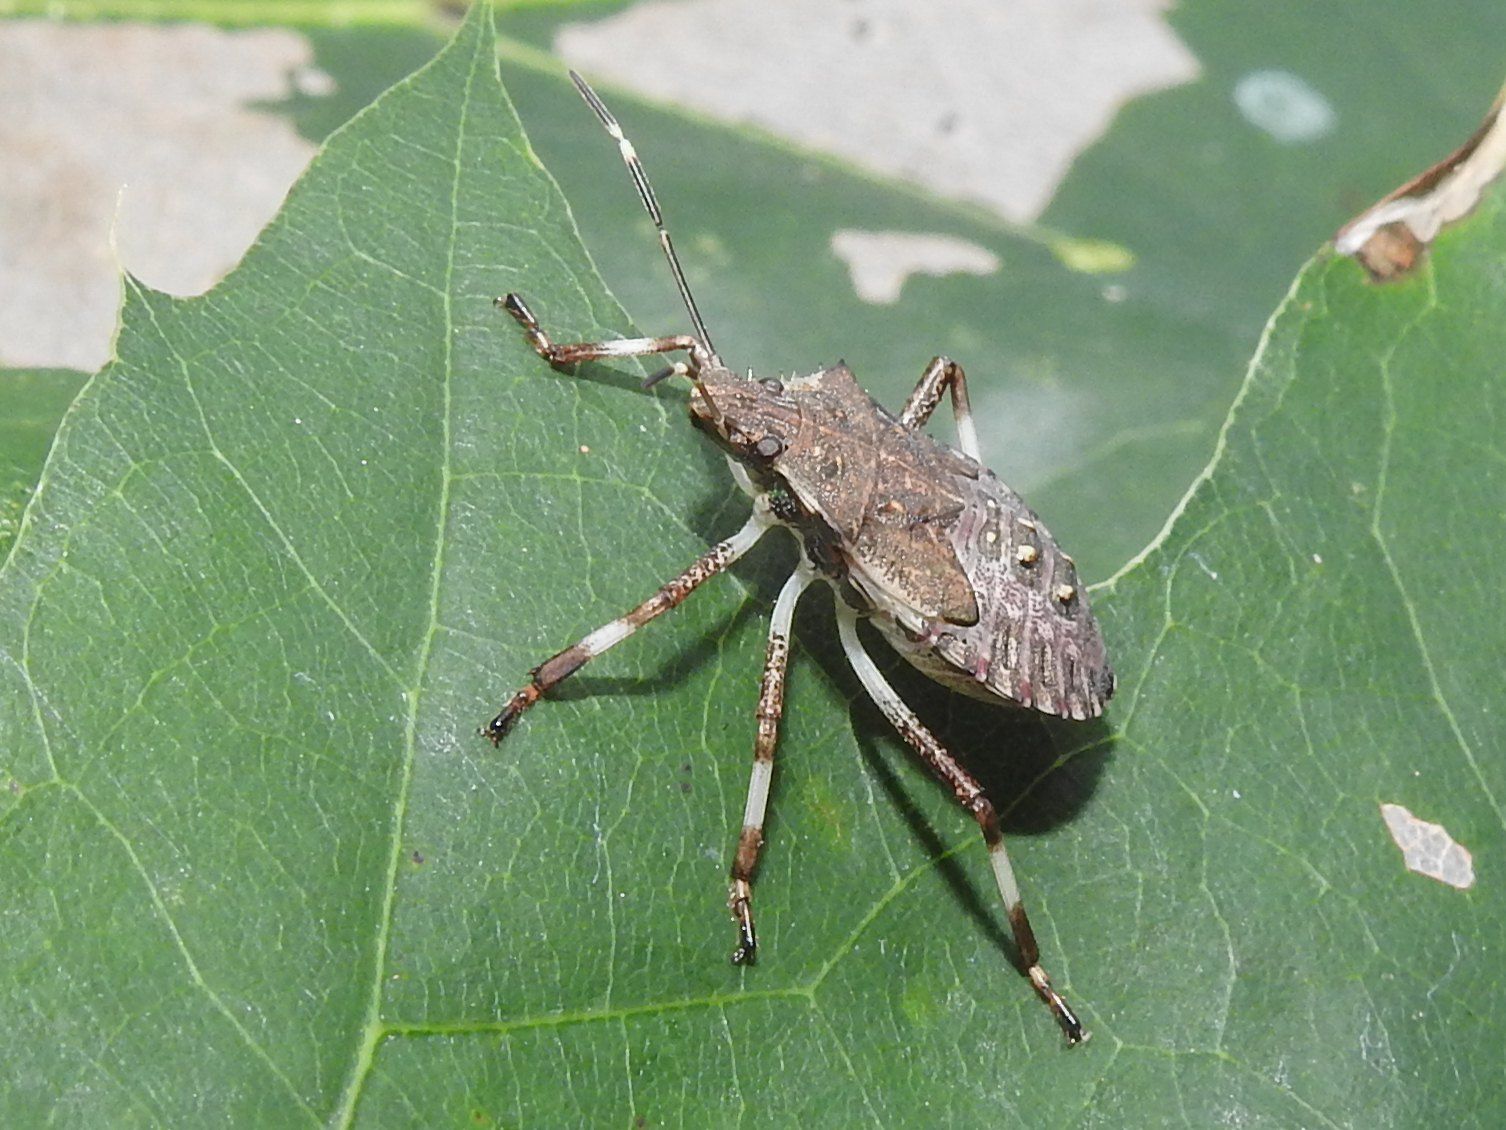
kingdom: Animalia
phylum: Arthropoda
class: Insecta
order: Hemiptera
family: Pentatomidae
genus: Halyomorpha
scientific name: Halyomorpha halys
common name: Brown marmorated stink bug
